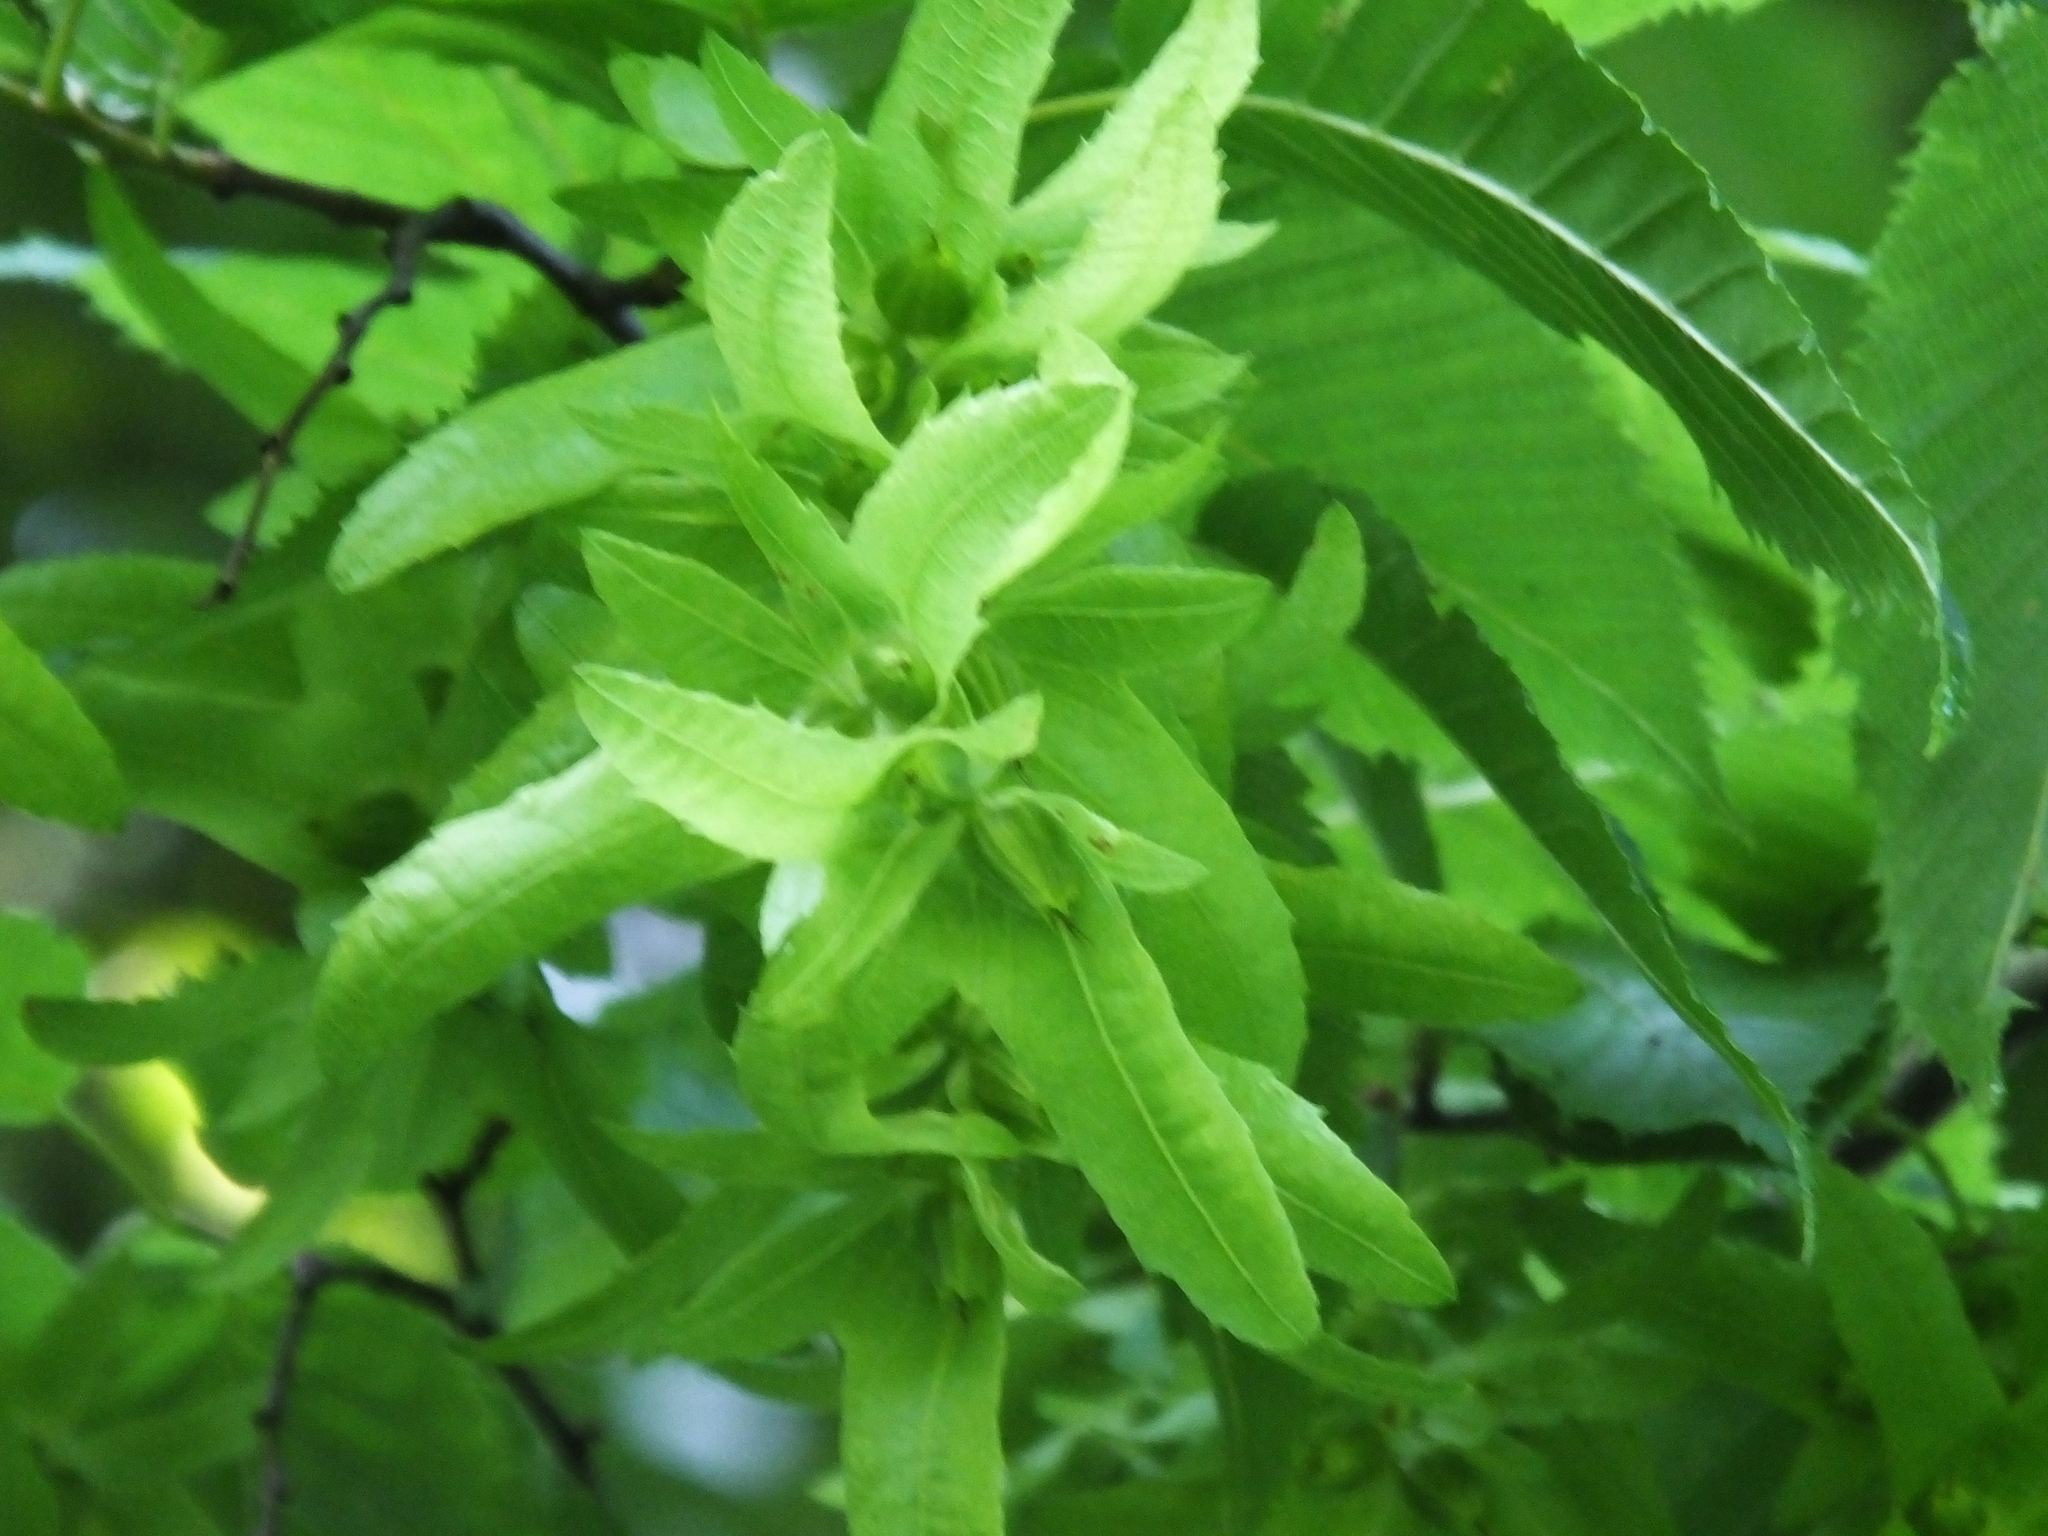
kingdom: Plantae
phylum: Tracheophyta
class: Magnoliopsida
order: Fagales
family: Betulaceae
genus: Carpinus
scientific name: Carpinus betulus
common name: Hornbeam
